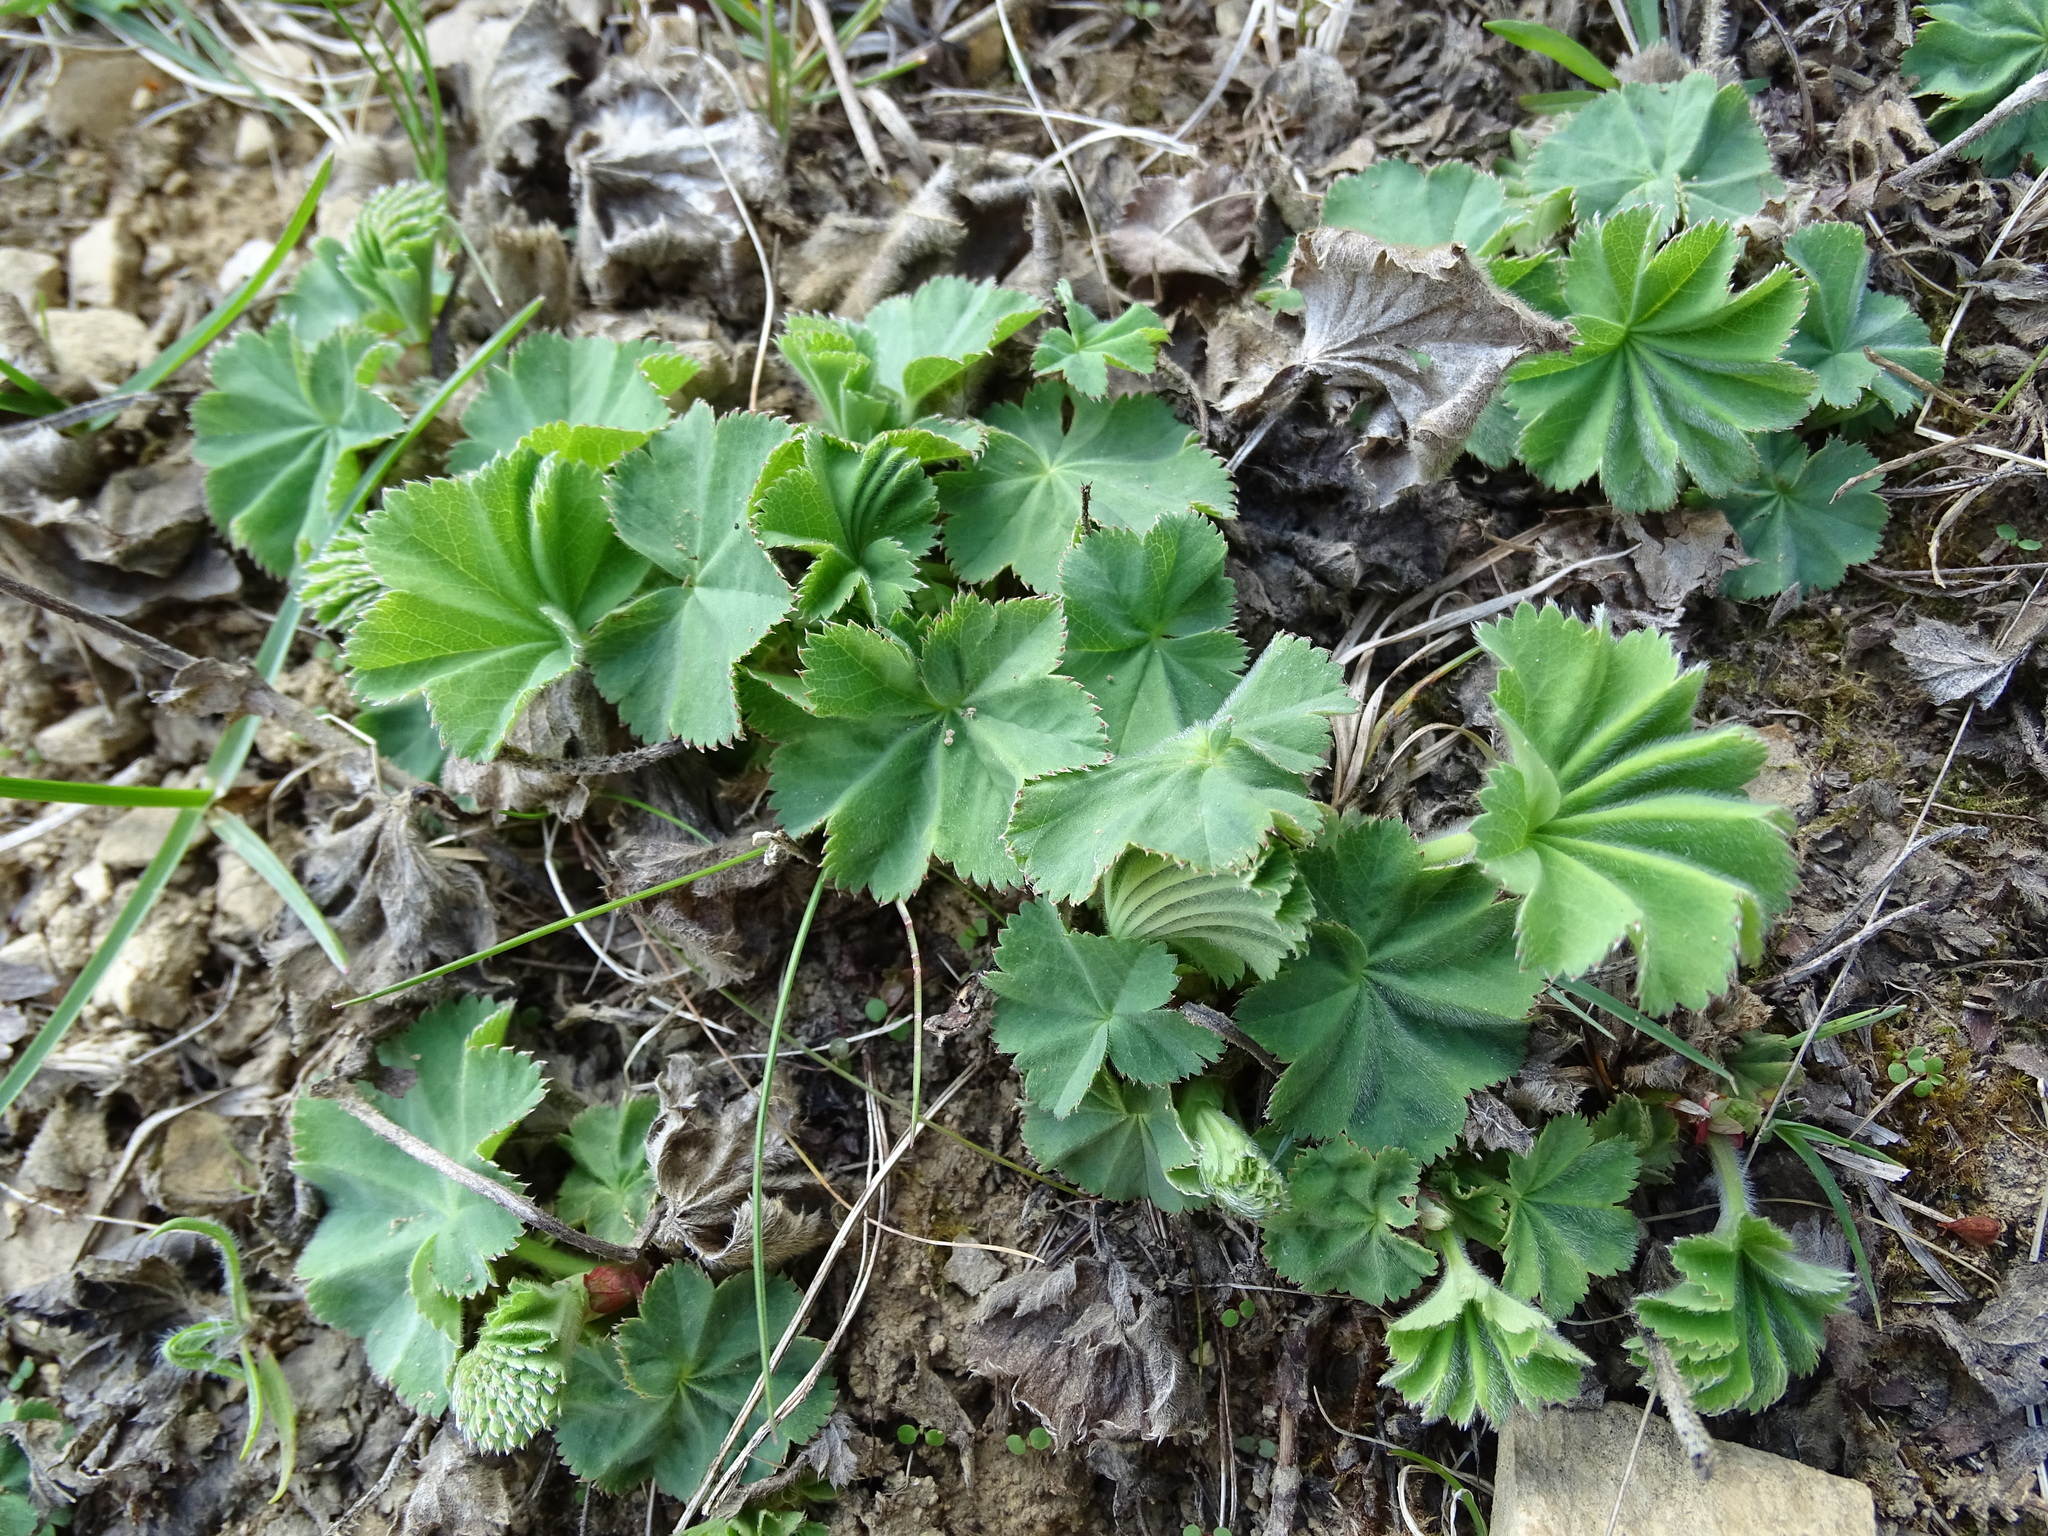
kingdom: Plantae
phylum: Tracheophyta
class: Magnoliopsida
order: Rosales
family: Rosaceae
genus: Alchemilla
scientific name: Alchemilla vulgaris
